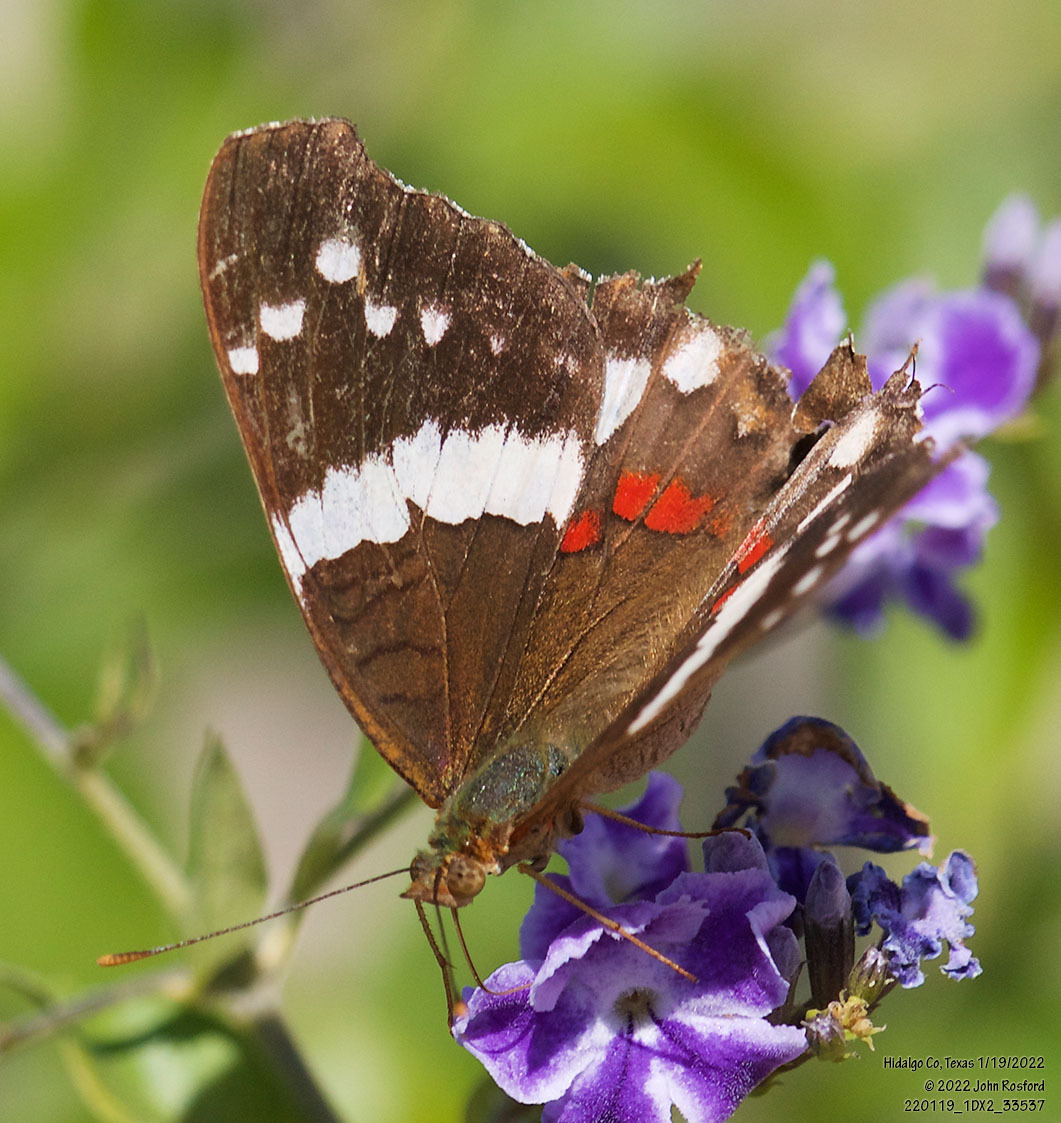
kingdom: Animalia
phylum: Arthropoda
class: Insecta
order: Lepidoptera
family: Nymphalidae
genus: Anartia
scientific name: Anartia fatima
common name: Banded peacock
